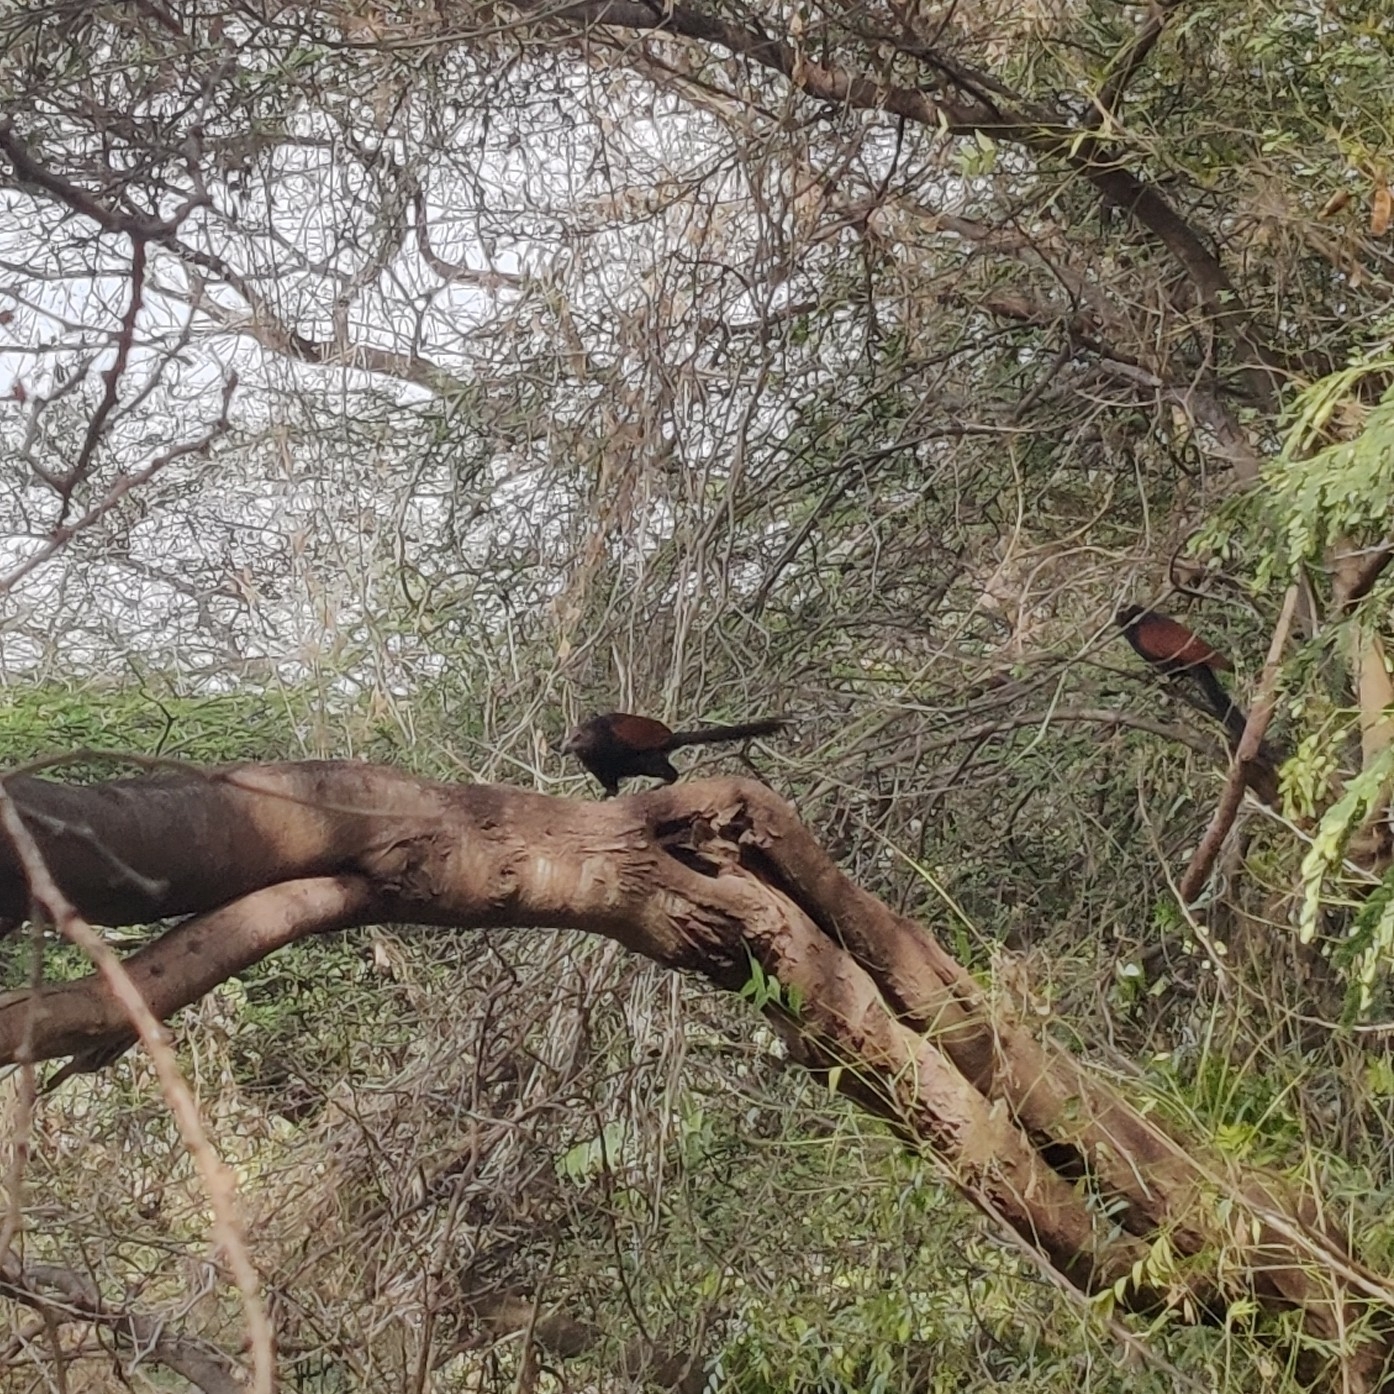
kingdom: Animalia
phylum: Chordata
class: Aves
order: Cuculiformes
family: Cuculidae
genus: Centropus
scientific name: Centropus sinensis
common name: Greater coucal
